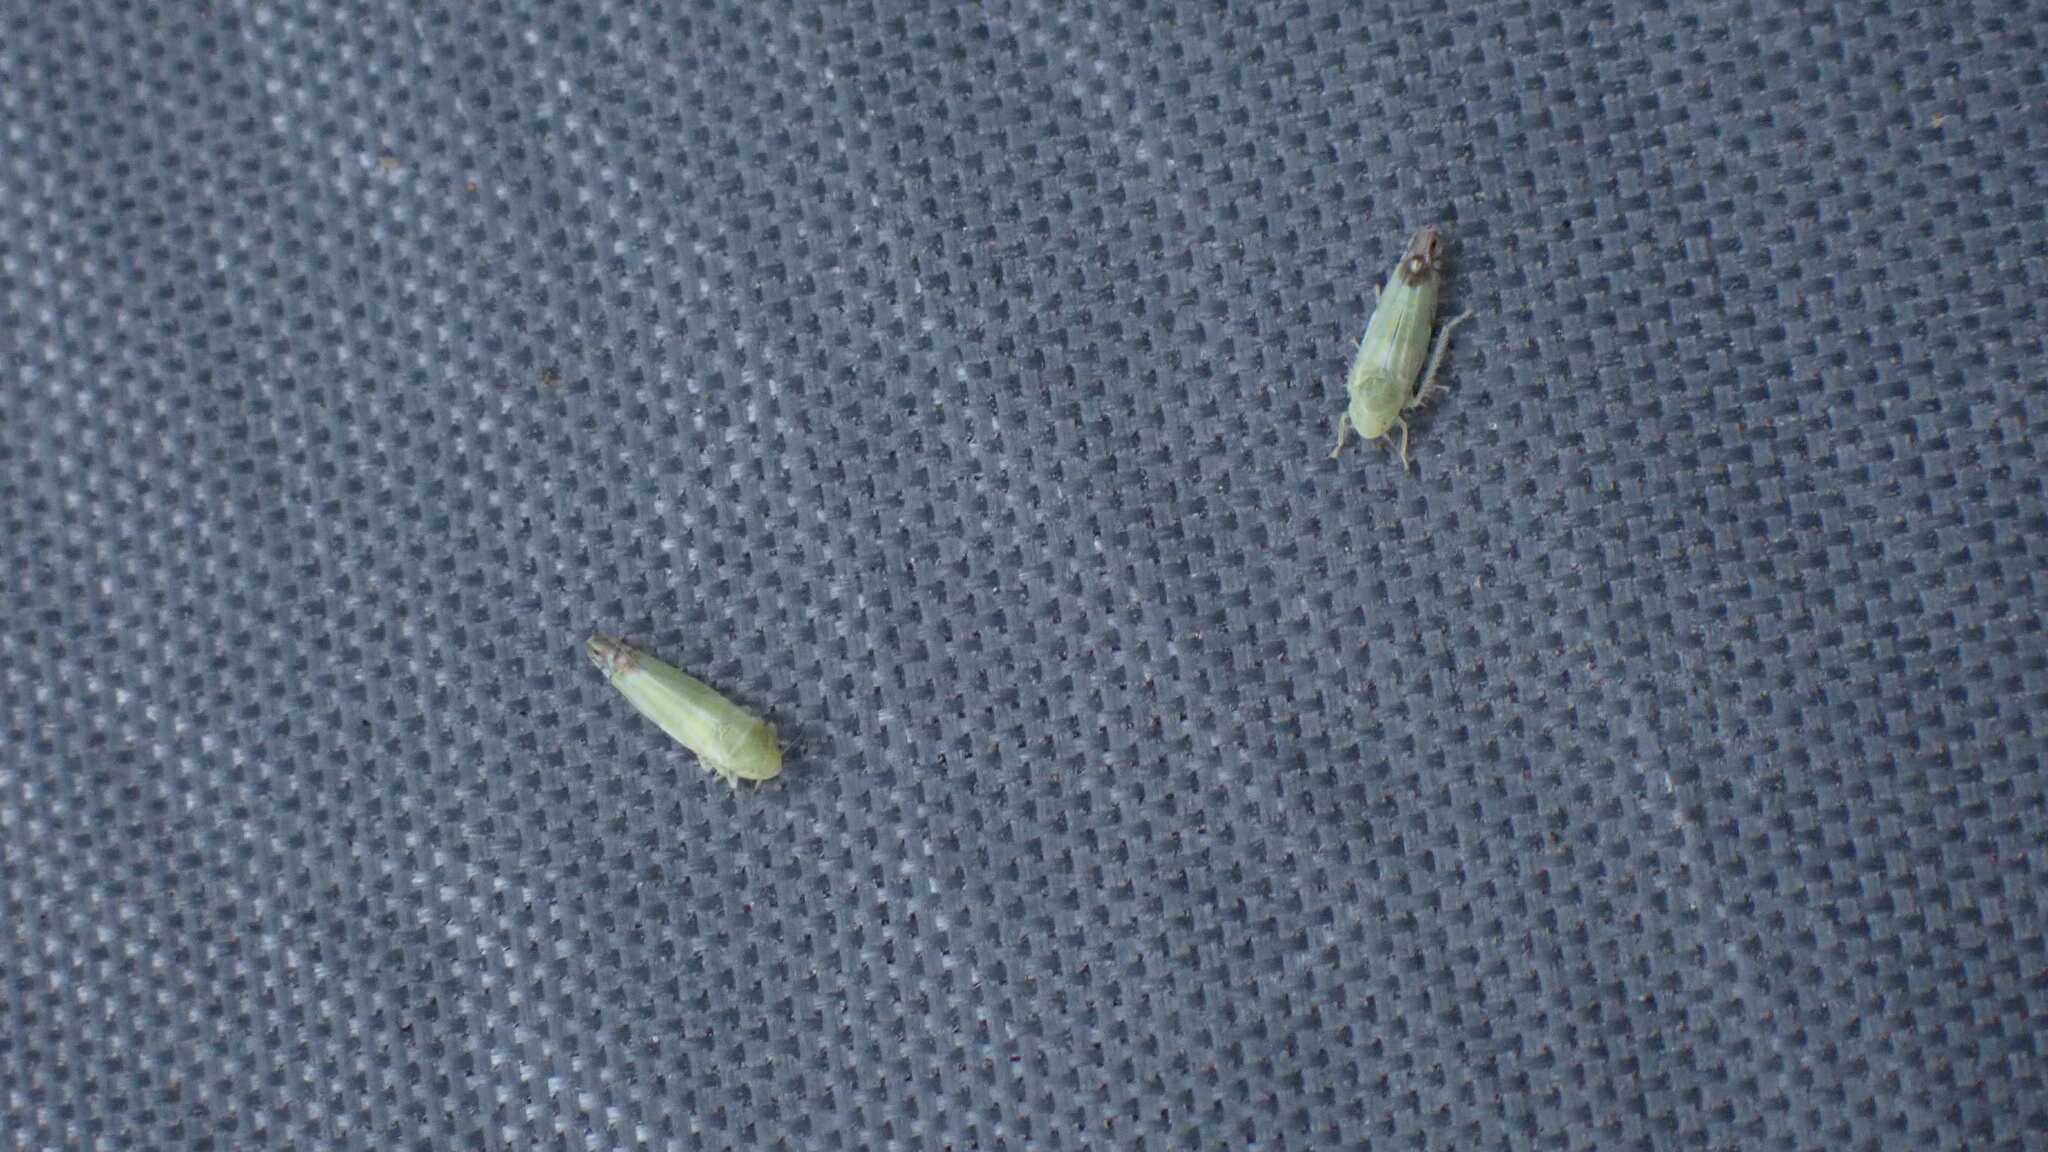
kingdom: Animalia
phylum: Arthropoda
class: Insecta
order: Hemiptera
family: Cicadellidae
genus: Zyginella
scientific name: Zyginella pulchra
